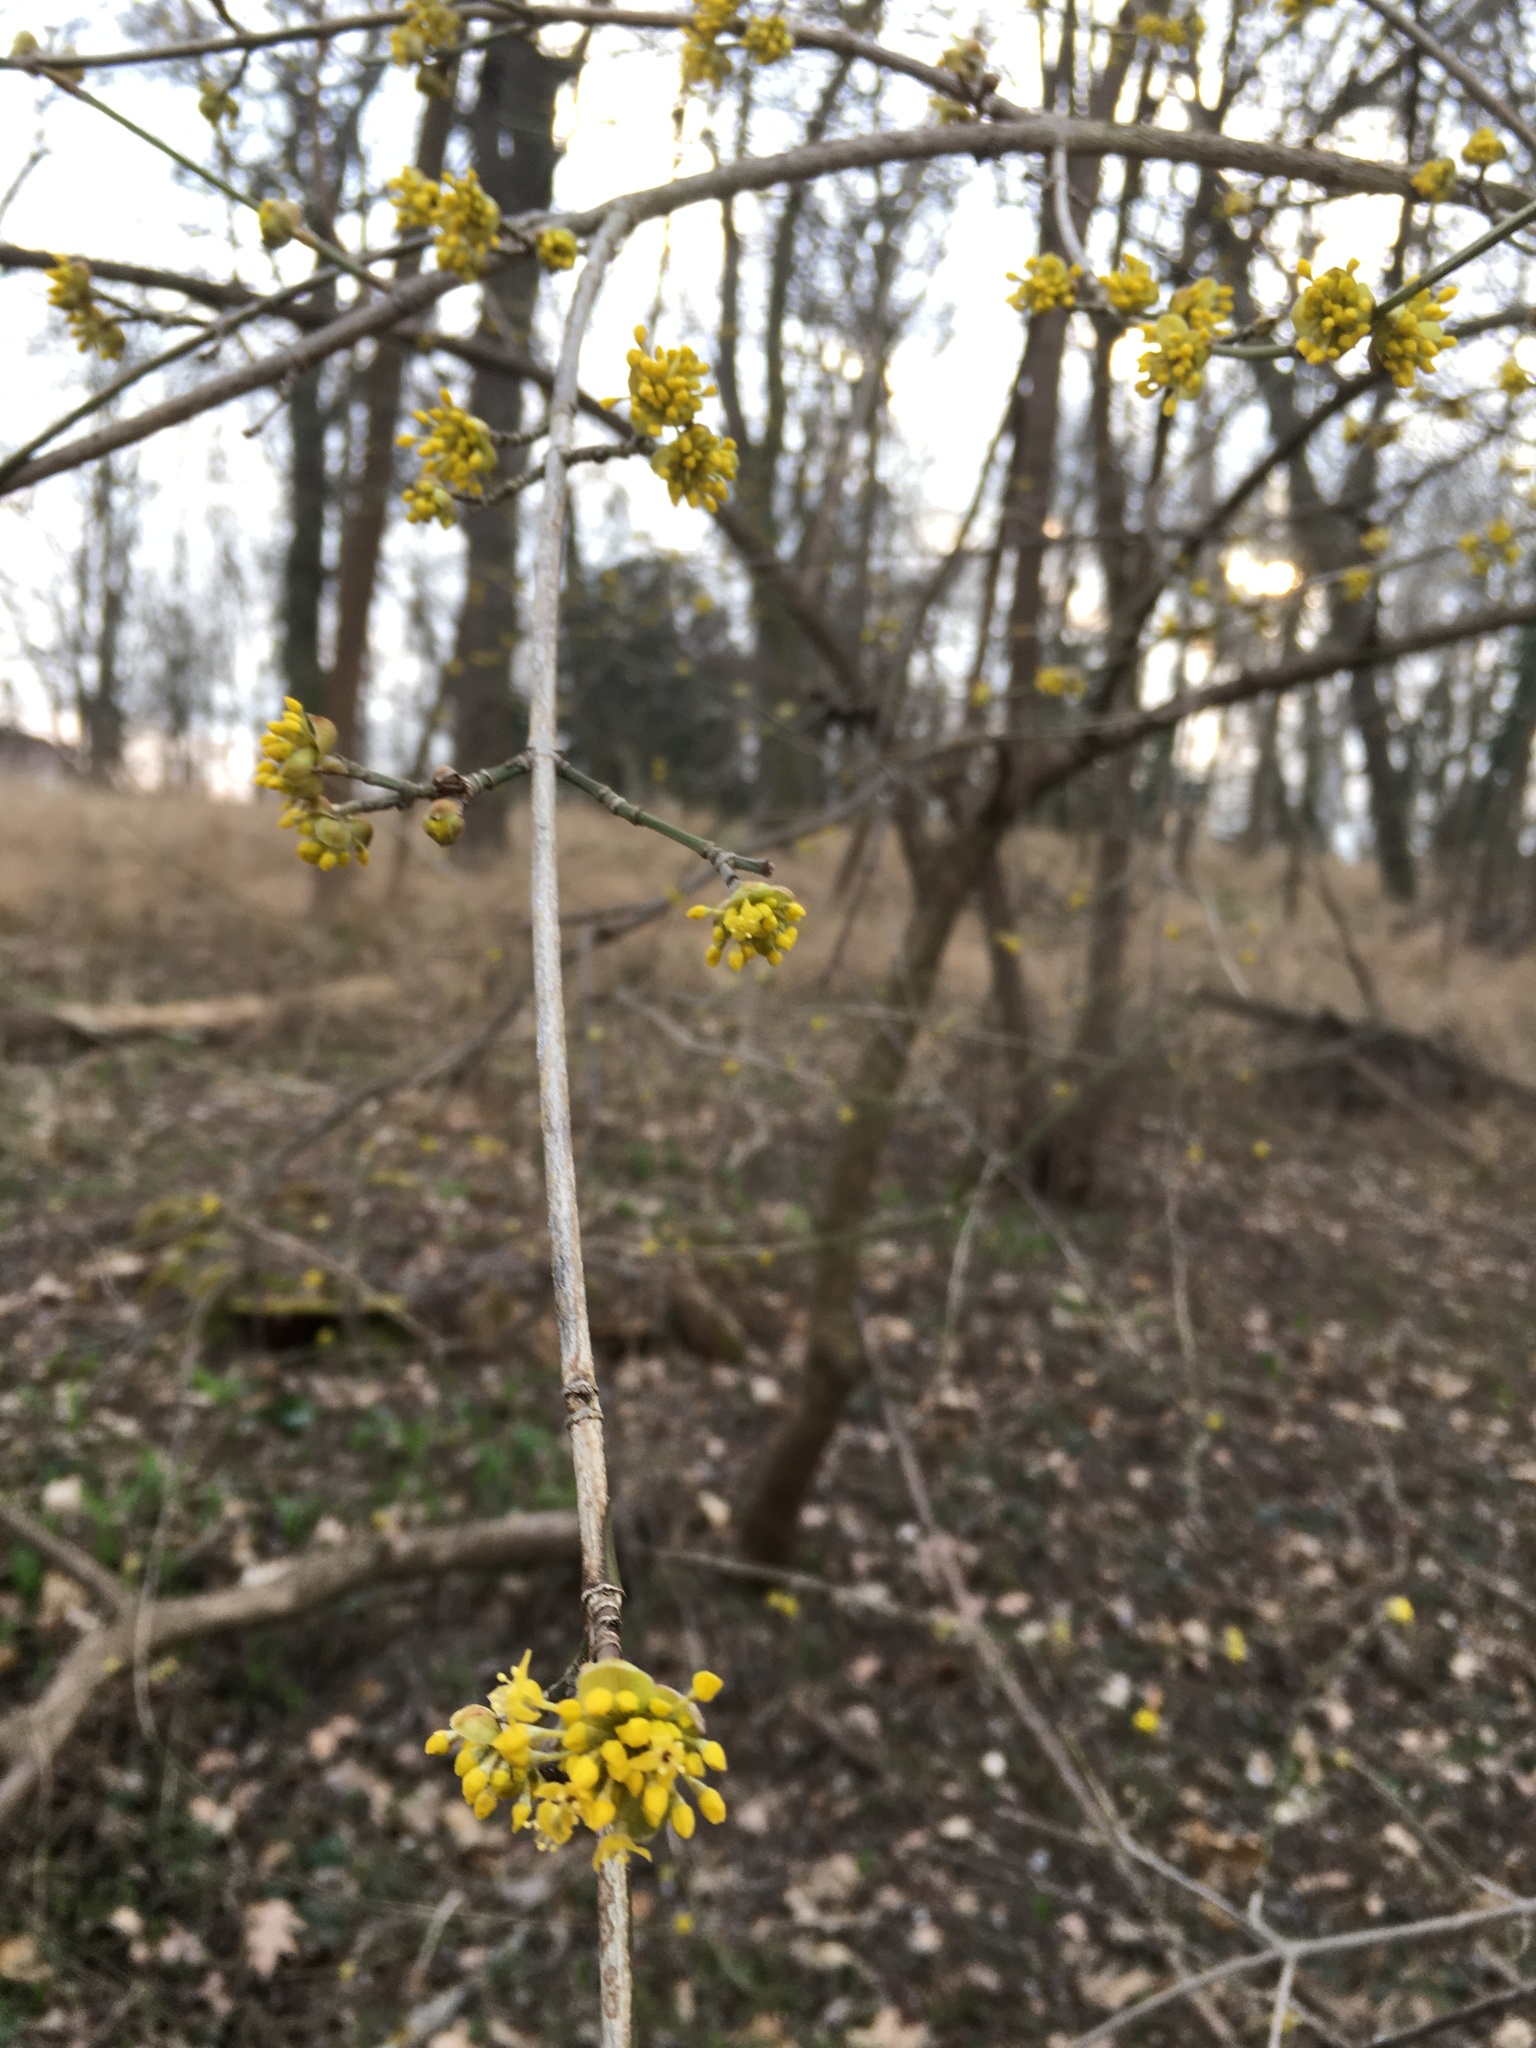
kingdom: Plantae
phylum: Tracheophyta
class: Magnoliopsida
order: Cornales
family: Cornaceae
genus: Cornus
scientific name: Cornus mas
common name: Cornelian-cherry
